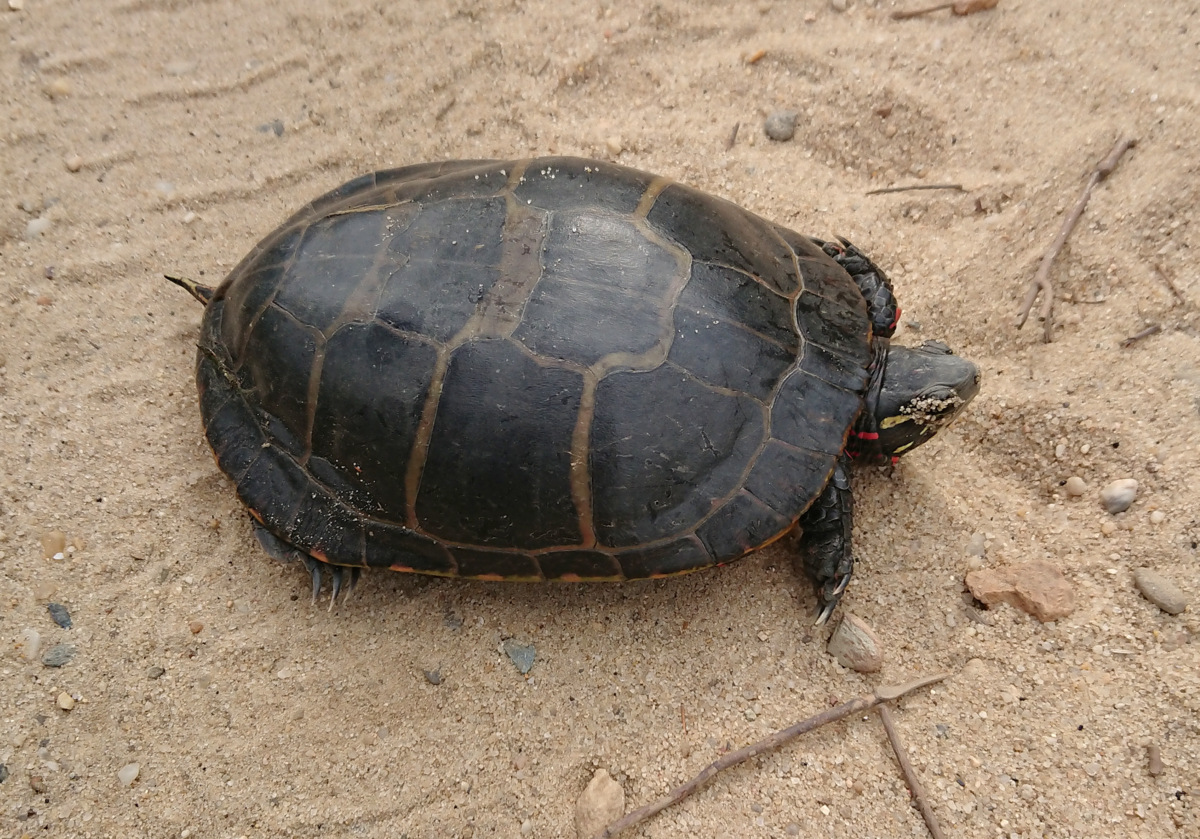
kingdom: Animalia
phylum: Chordata
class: Testudines
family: Emydidae
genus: Chrysemys
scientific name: Chrysemys picta
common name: Painted turtle
